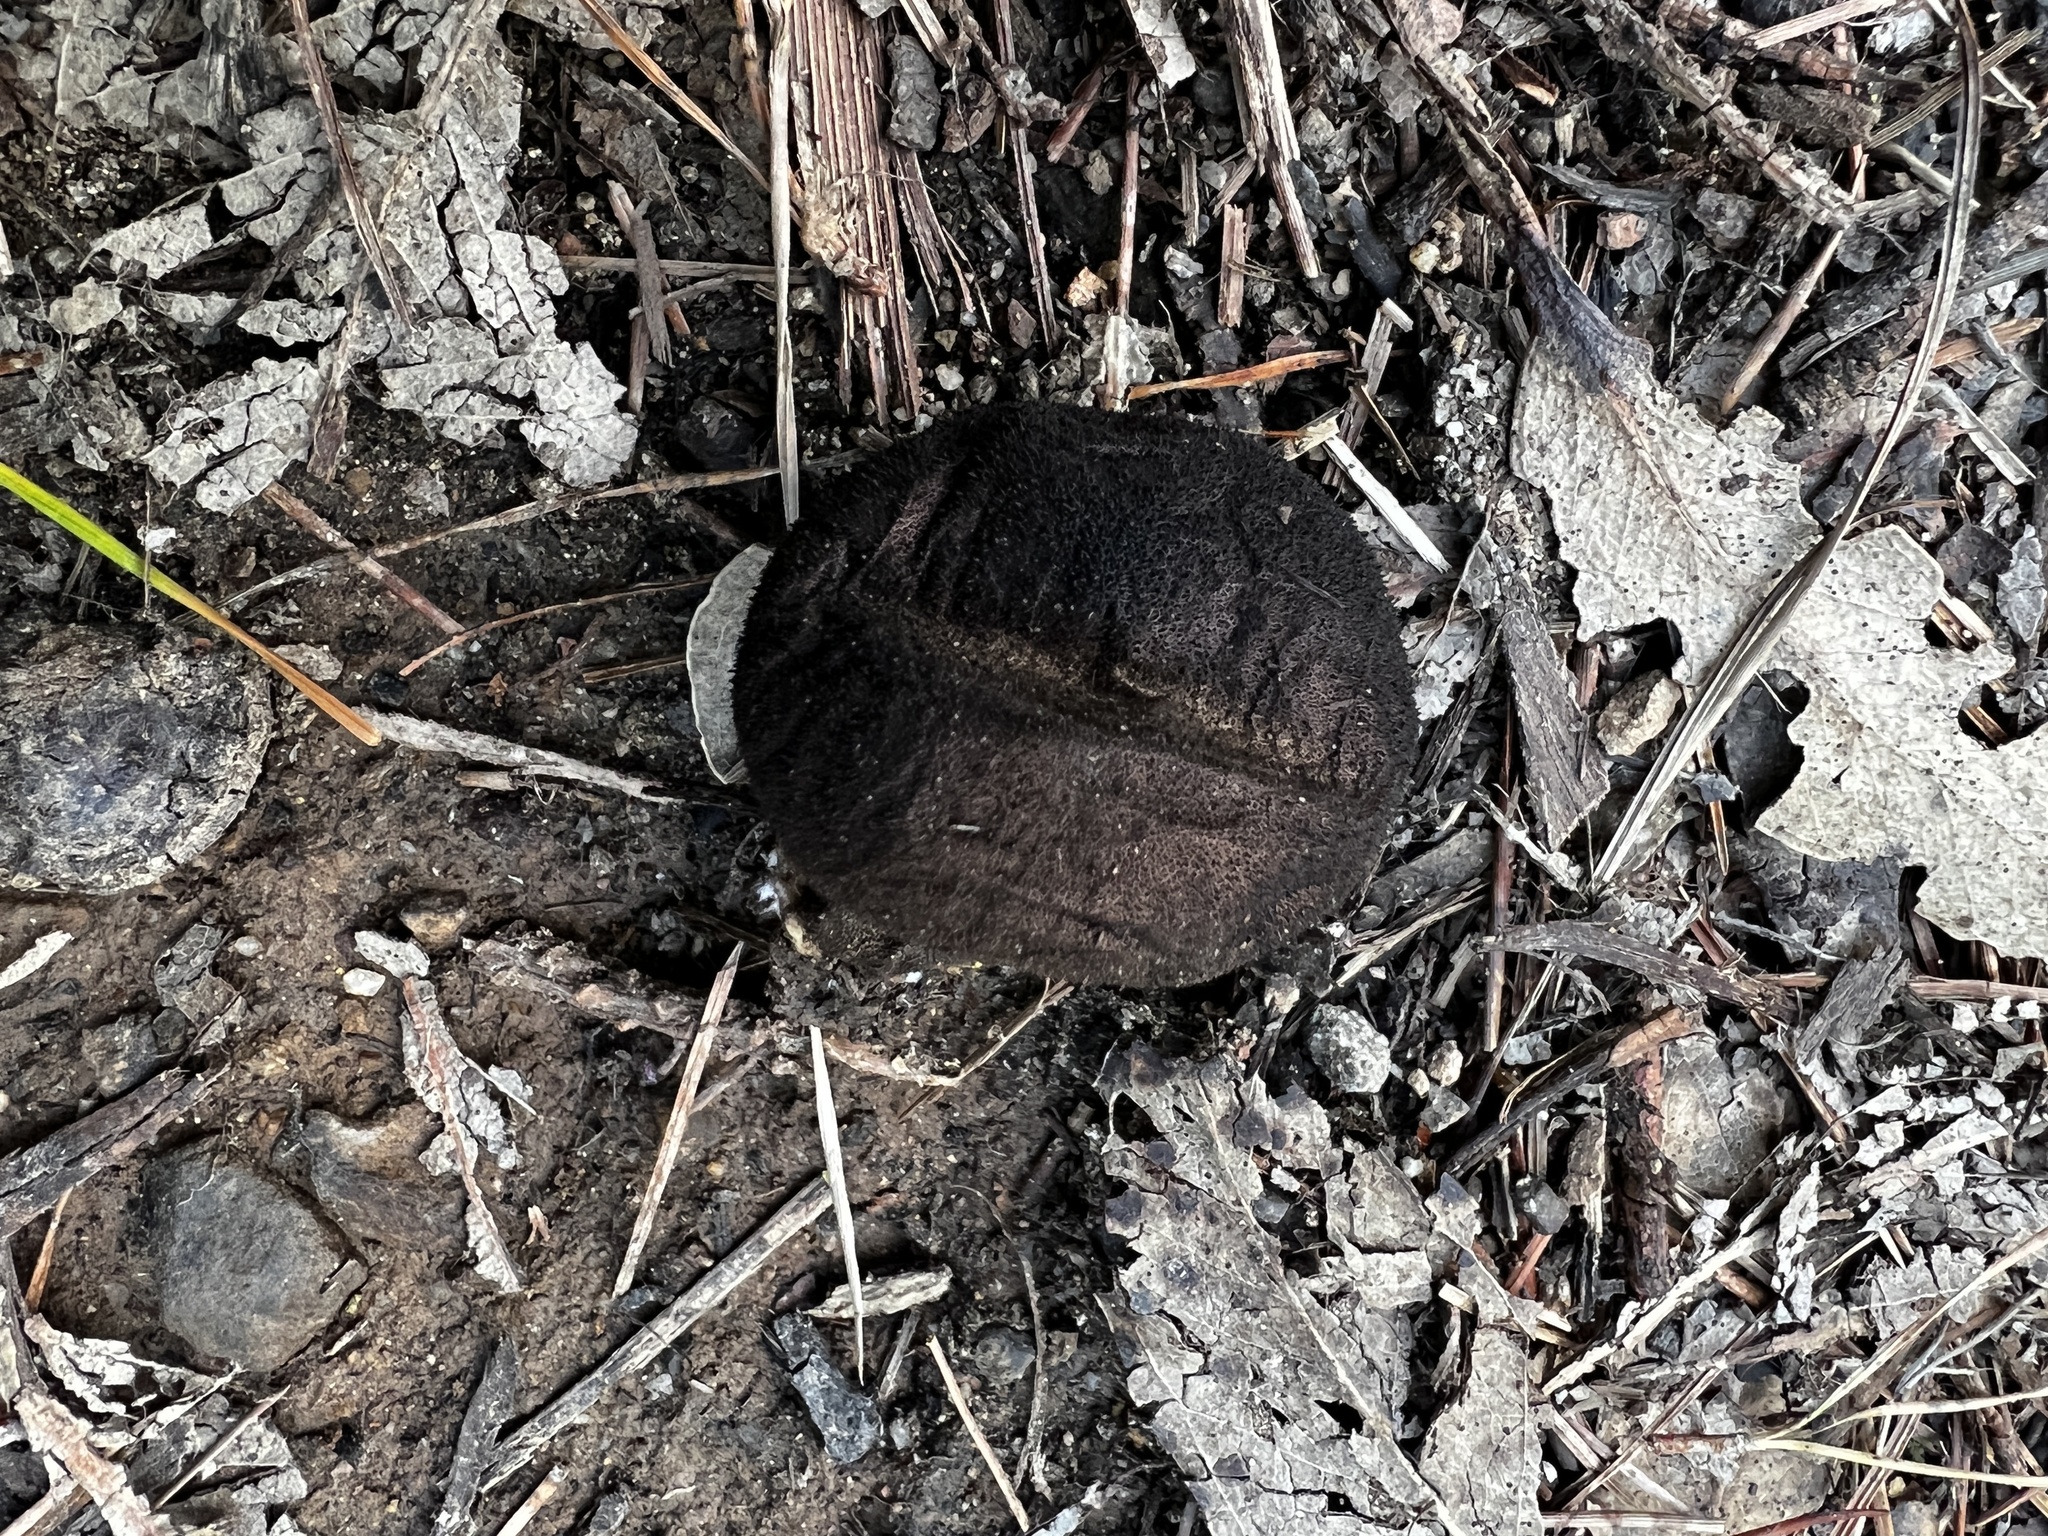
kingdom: Fungi
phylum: Basidiomycota
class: Agaricomycetes
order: Agaricales
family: Lycoperdaceae
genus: Lycoperdon
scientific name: Lycoperdon umbrinum
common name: Umber-brown puffball
